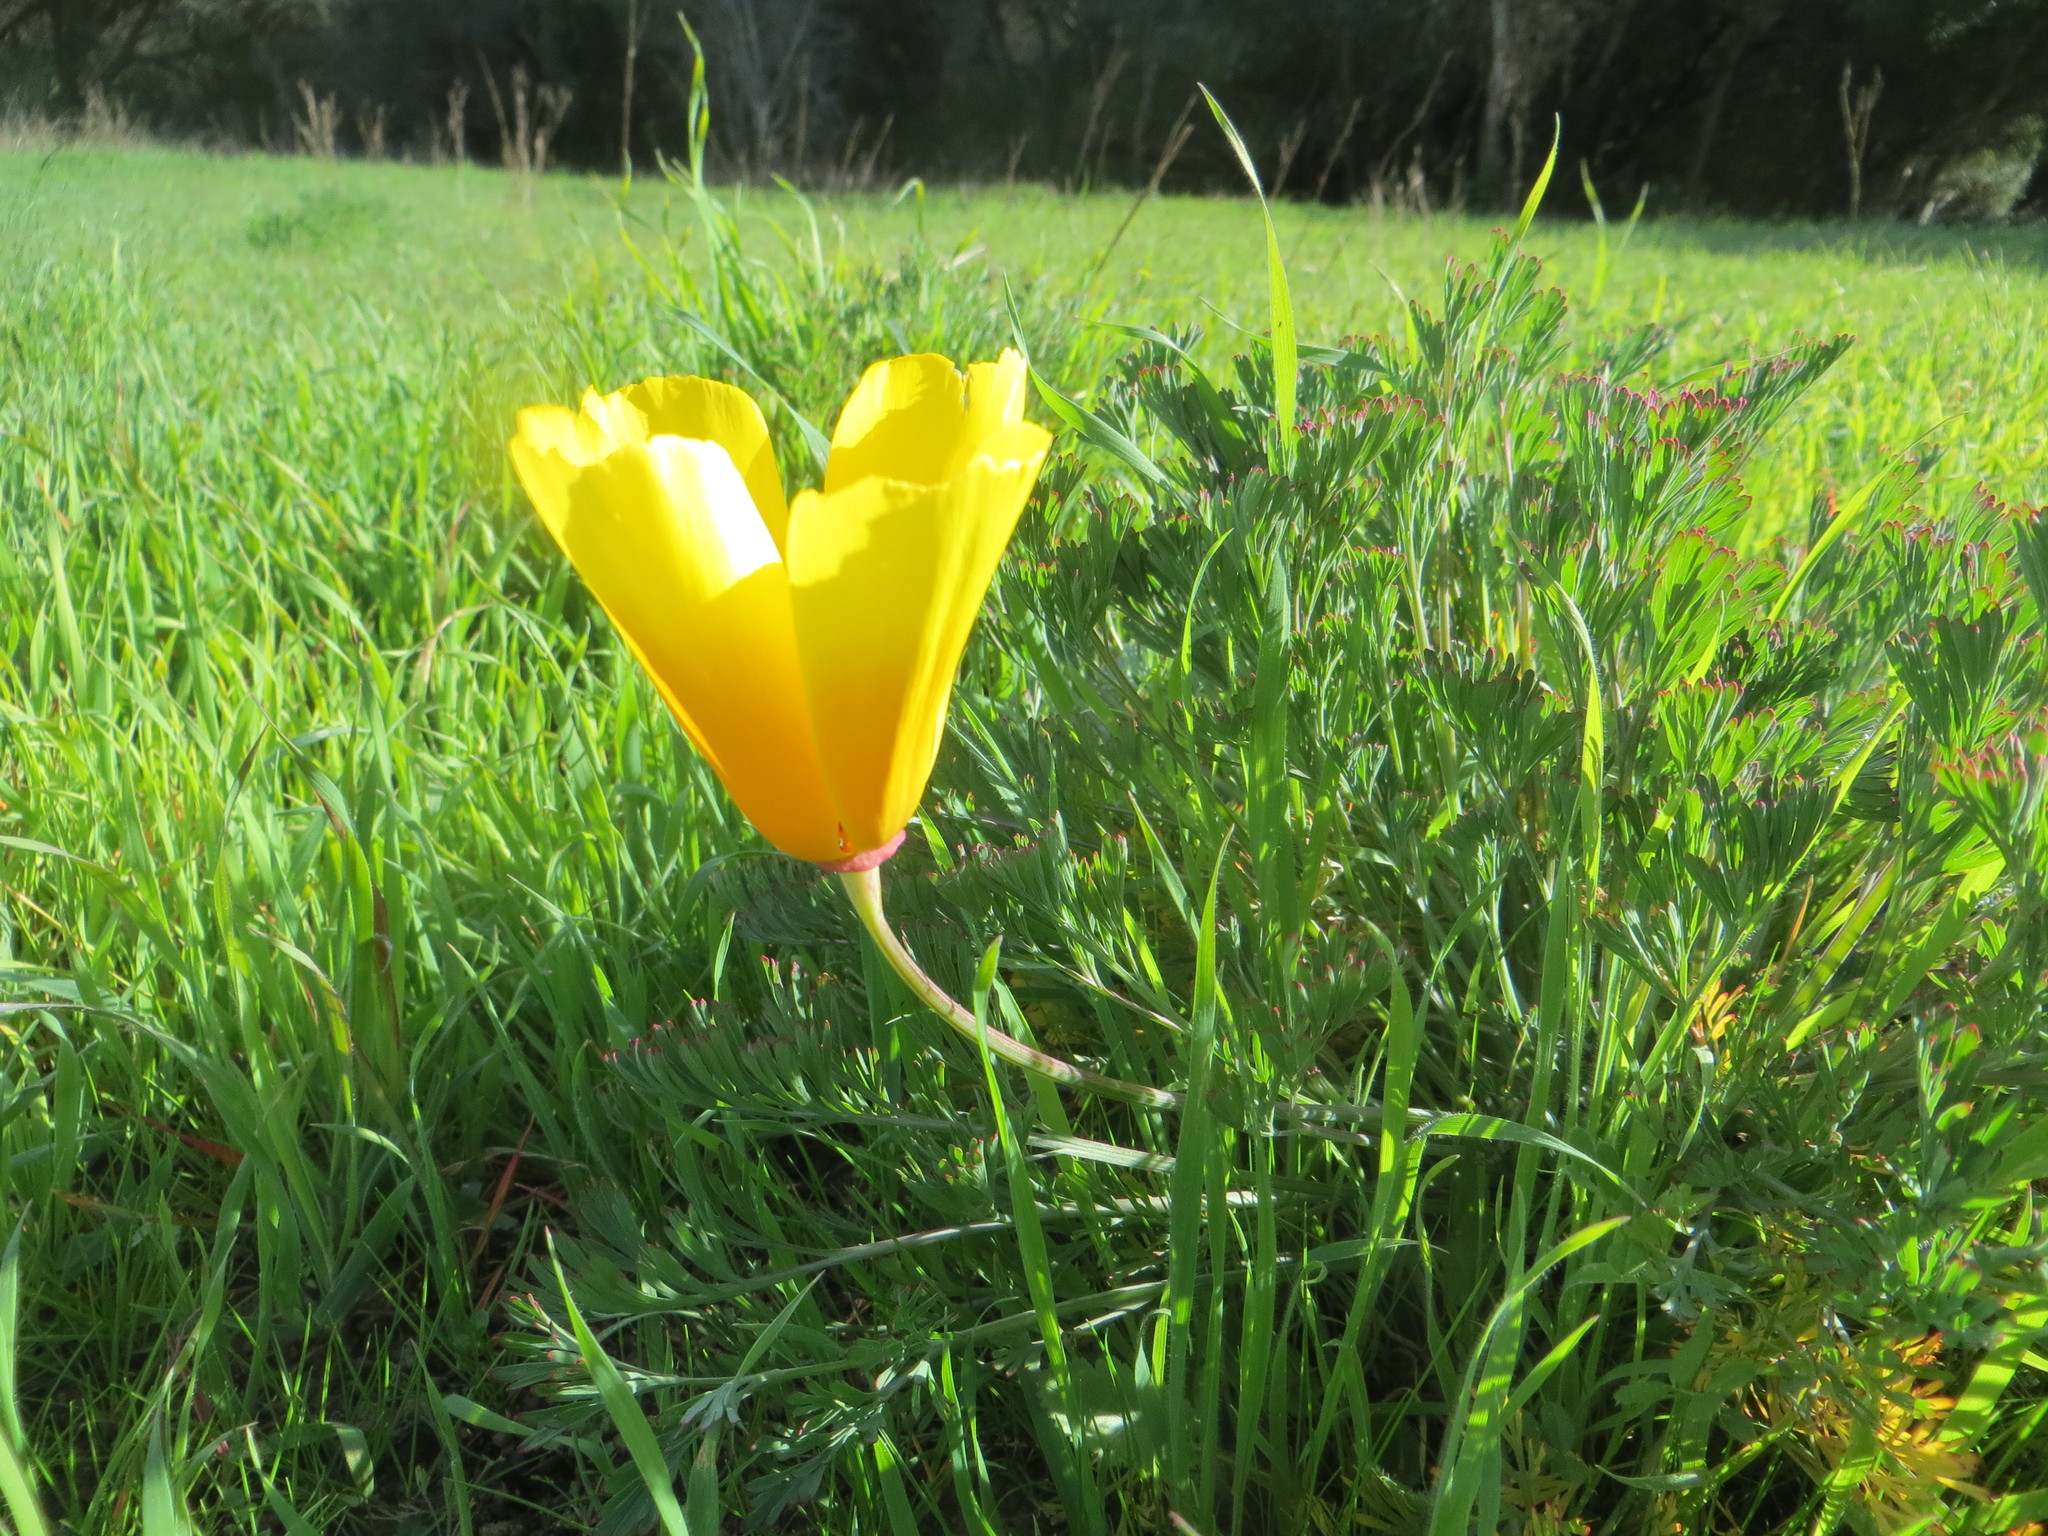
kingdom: Plantae
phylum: Tracheophyta
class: Magnoliopsida
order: Ranunculales
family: Papaveraceae
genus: Eschscholzia
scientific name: Eschscholzia californica
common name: California poppy
